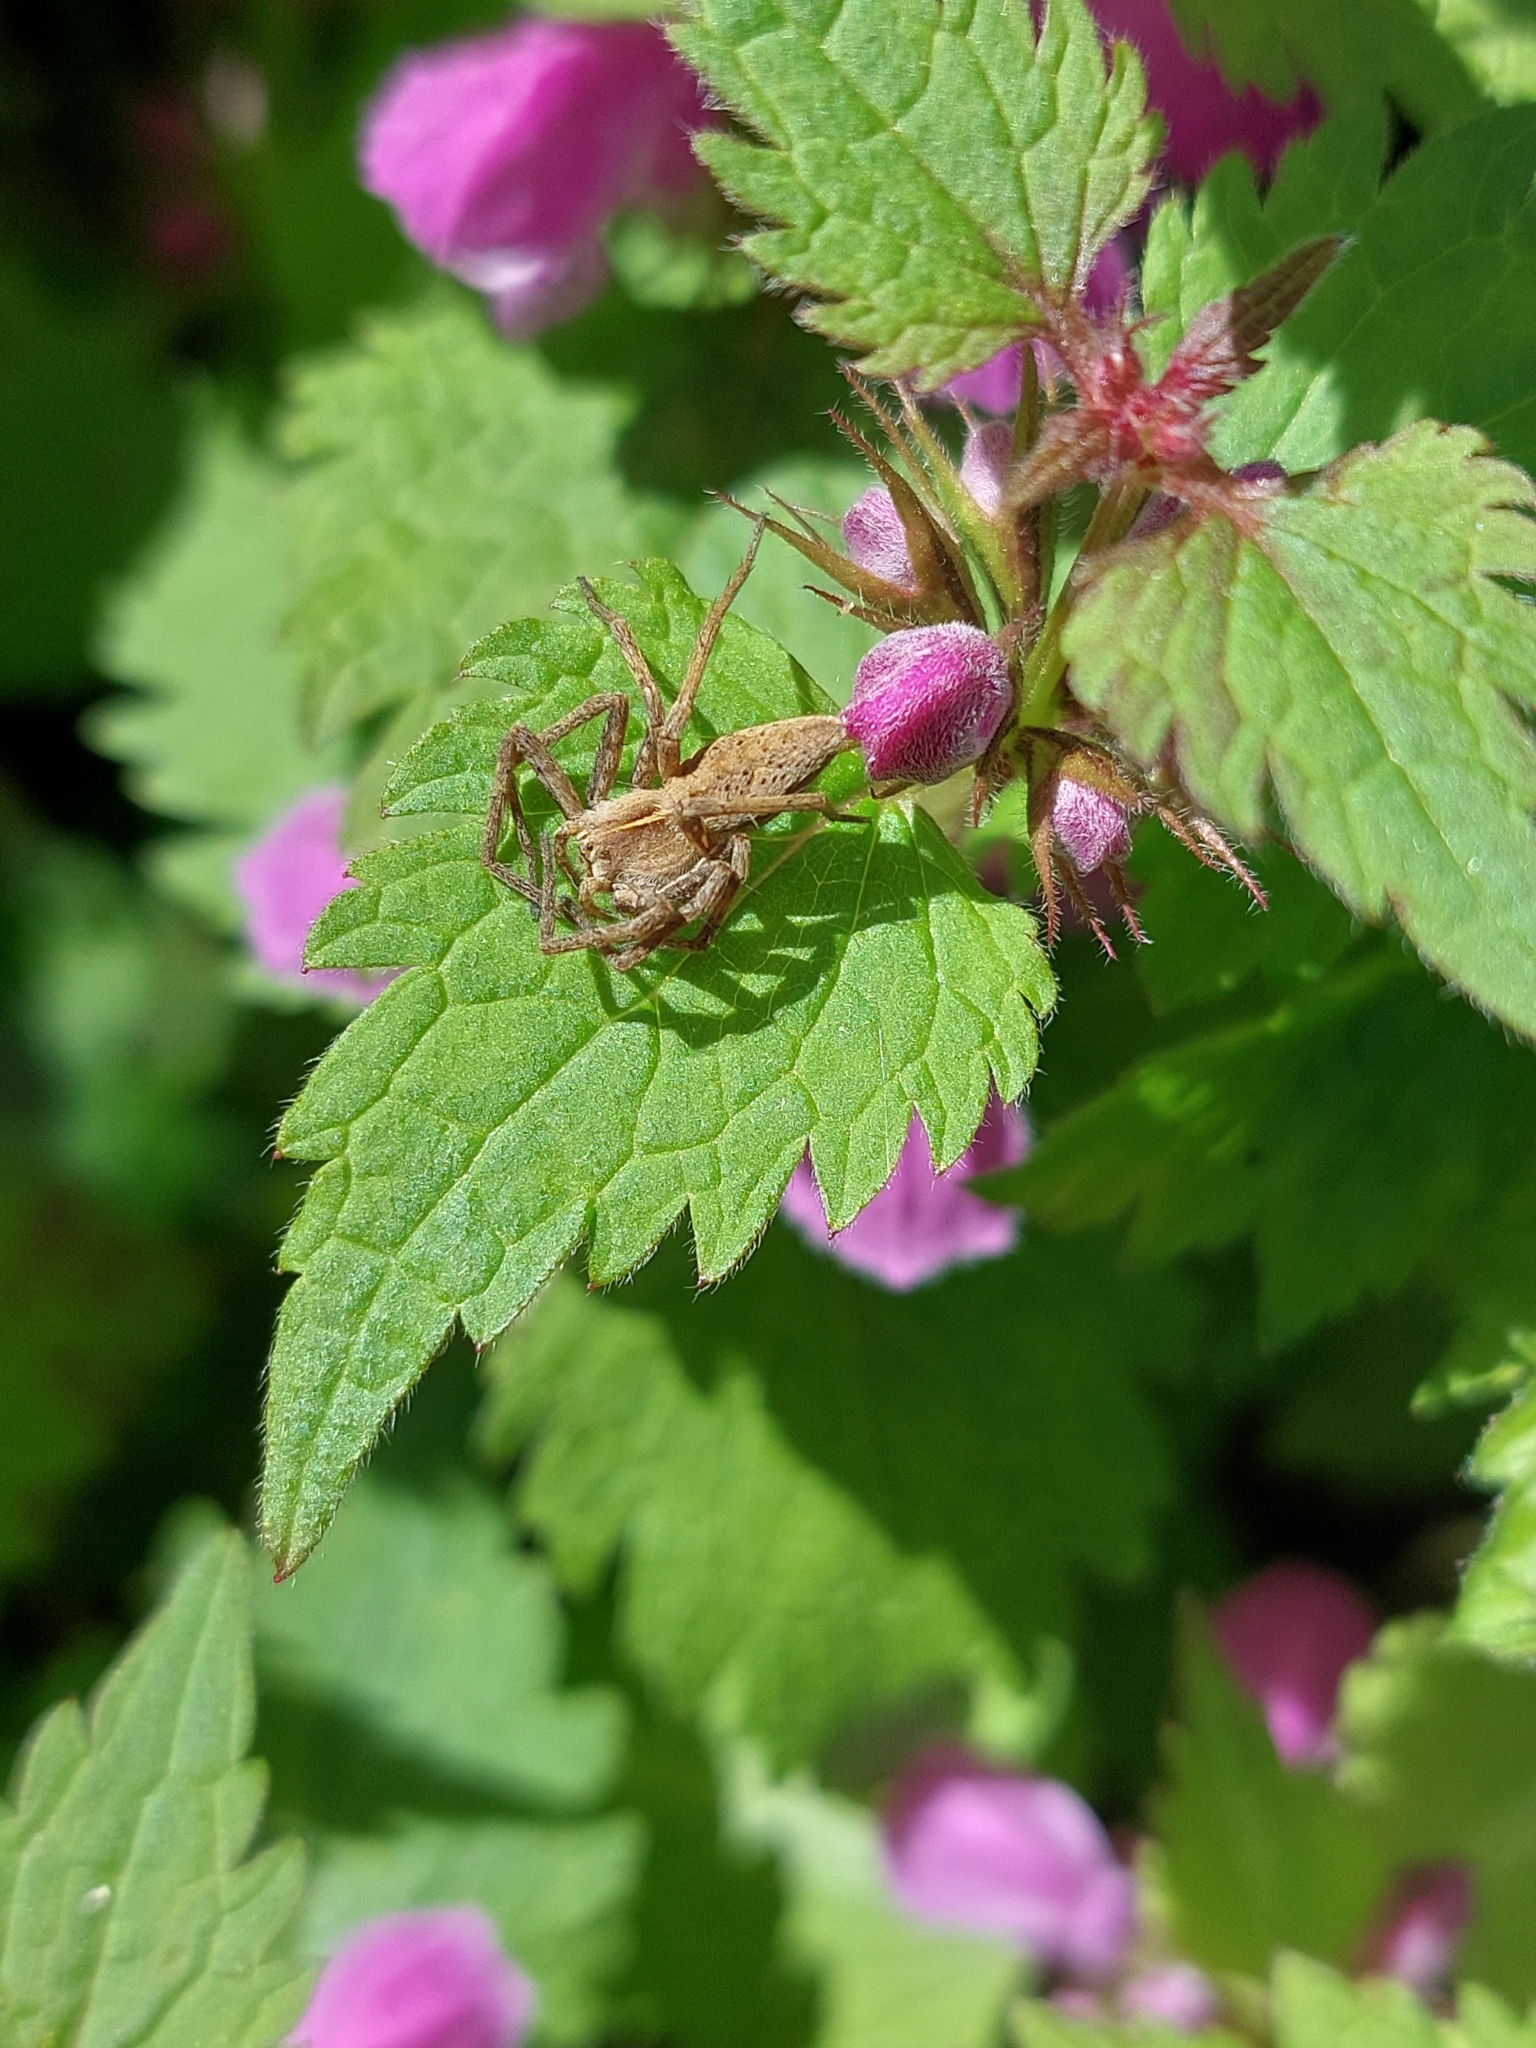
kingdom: Animalia
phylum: Arthropoda
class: Arachnida
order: Araneae
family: Pisauridae
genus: Pisaura
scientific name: Pisaura
